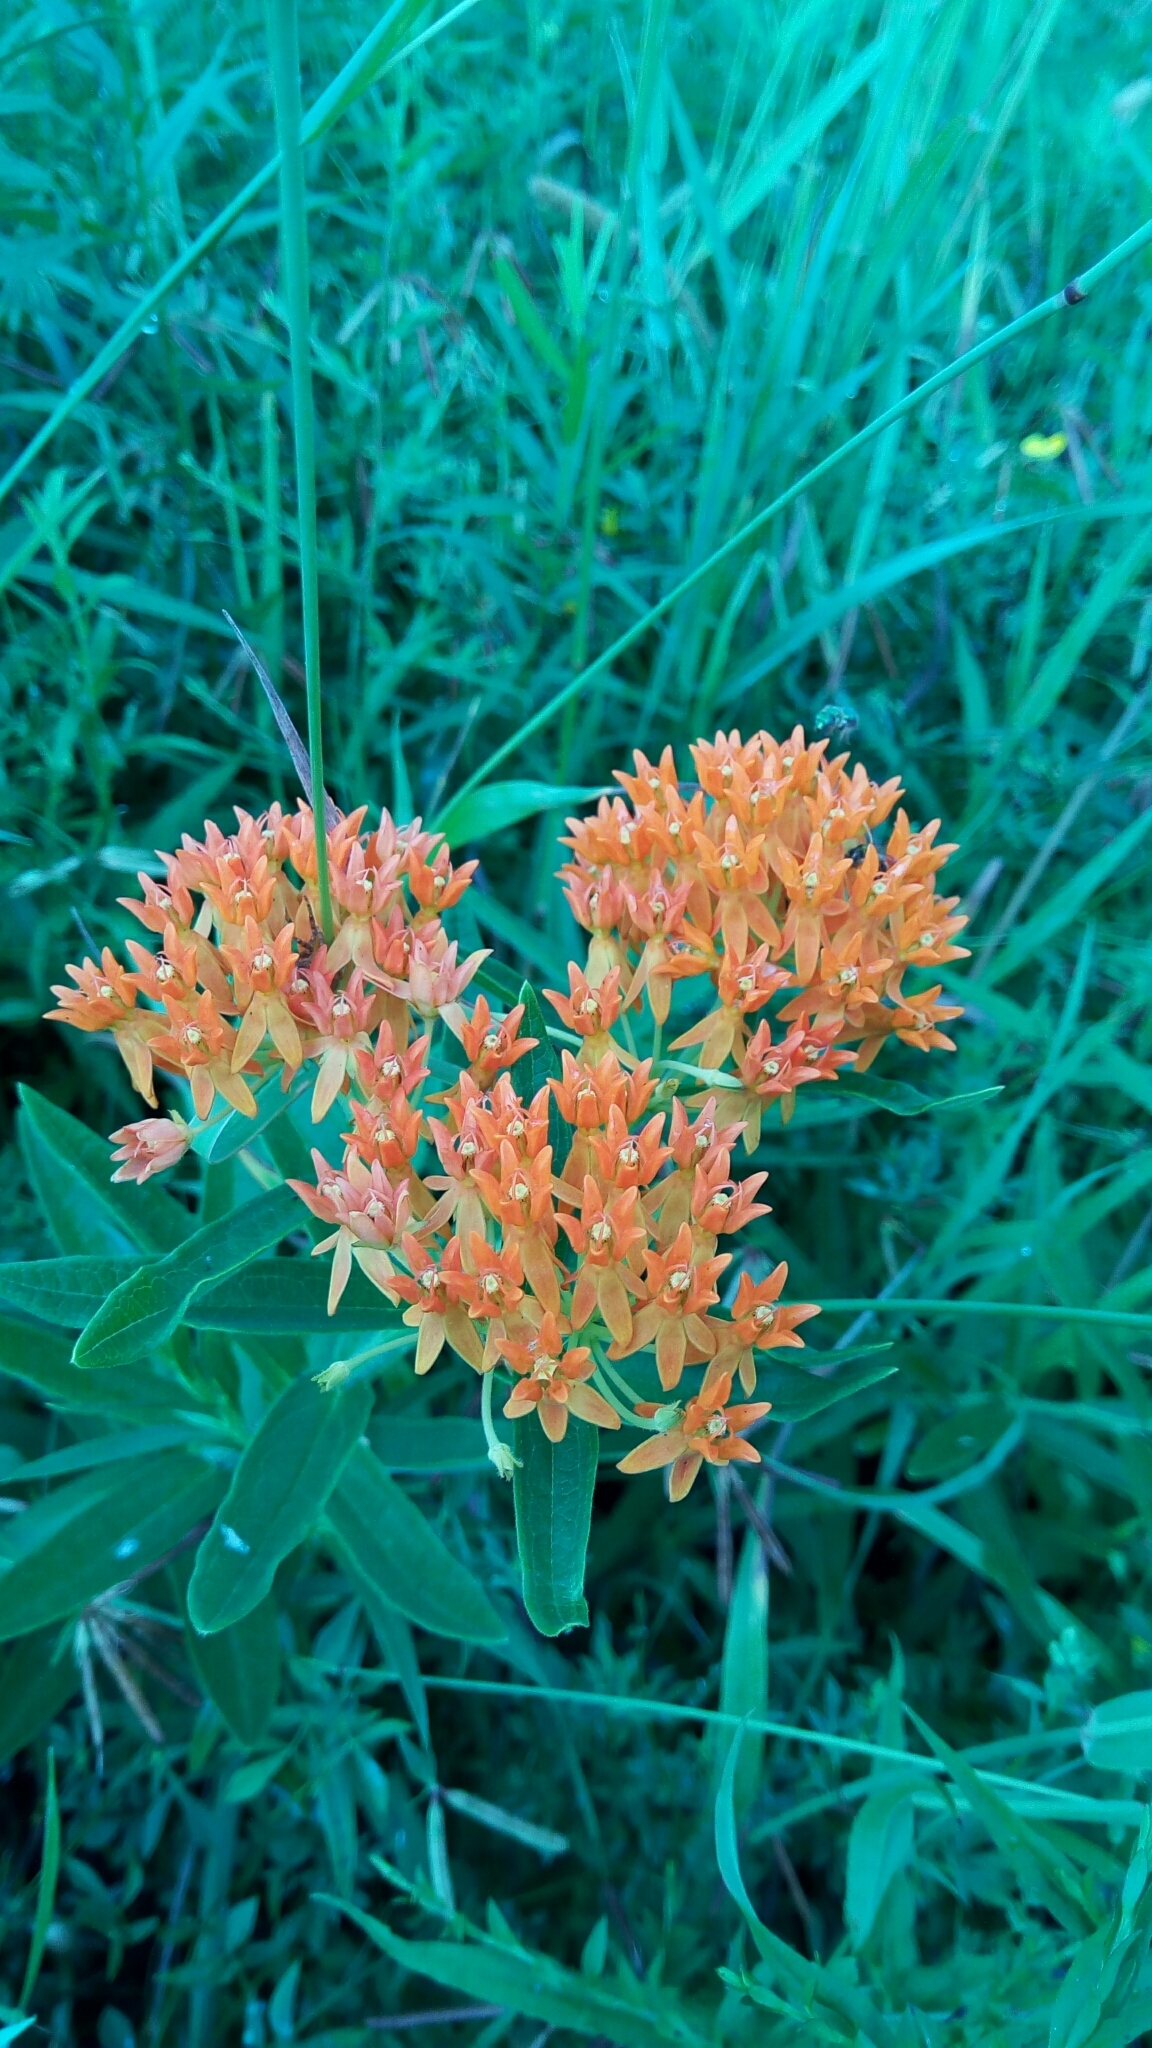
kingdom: Plantae
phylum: Tracheophyta
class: Magnoliopsida
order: Gentianales
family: Apocynaceae
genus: Asclepias
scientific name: Asclepias tuberosa
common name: Butterfly milkweed
